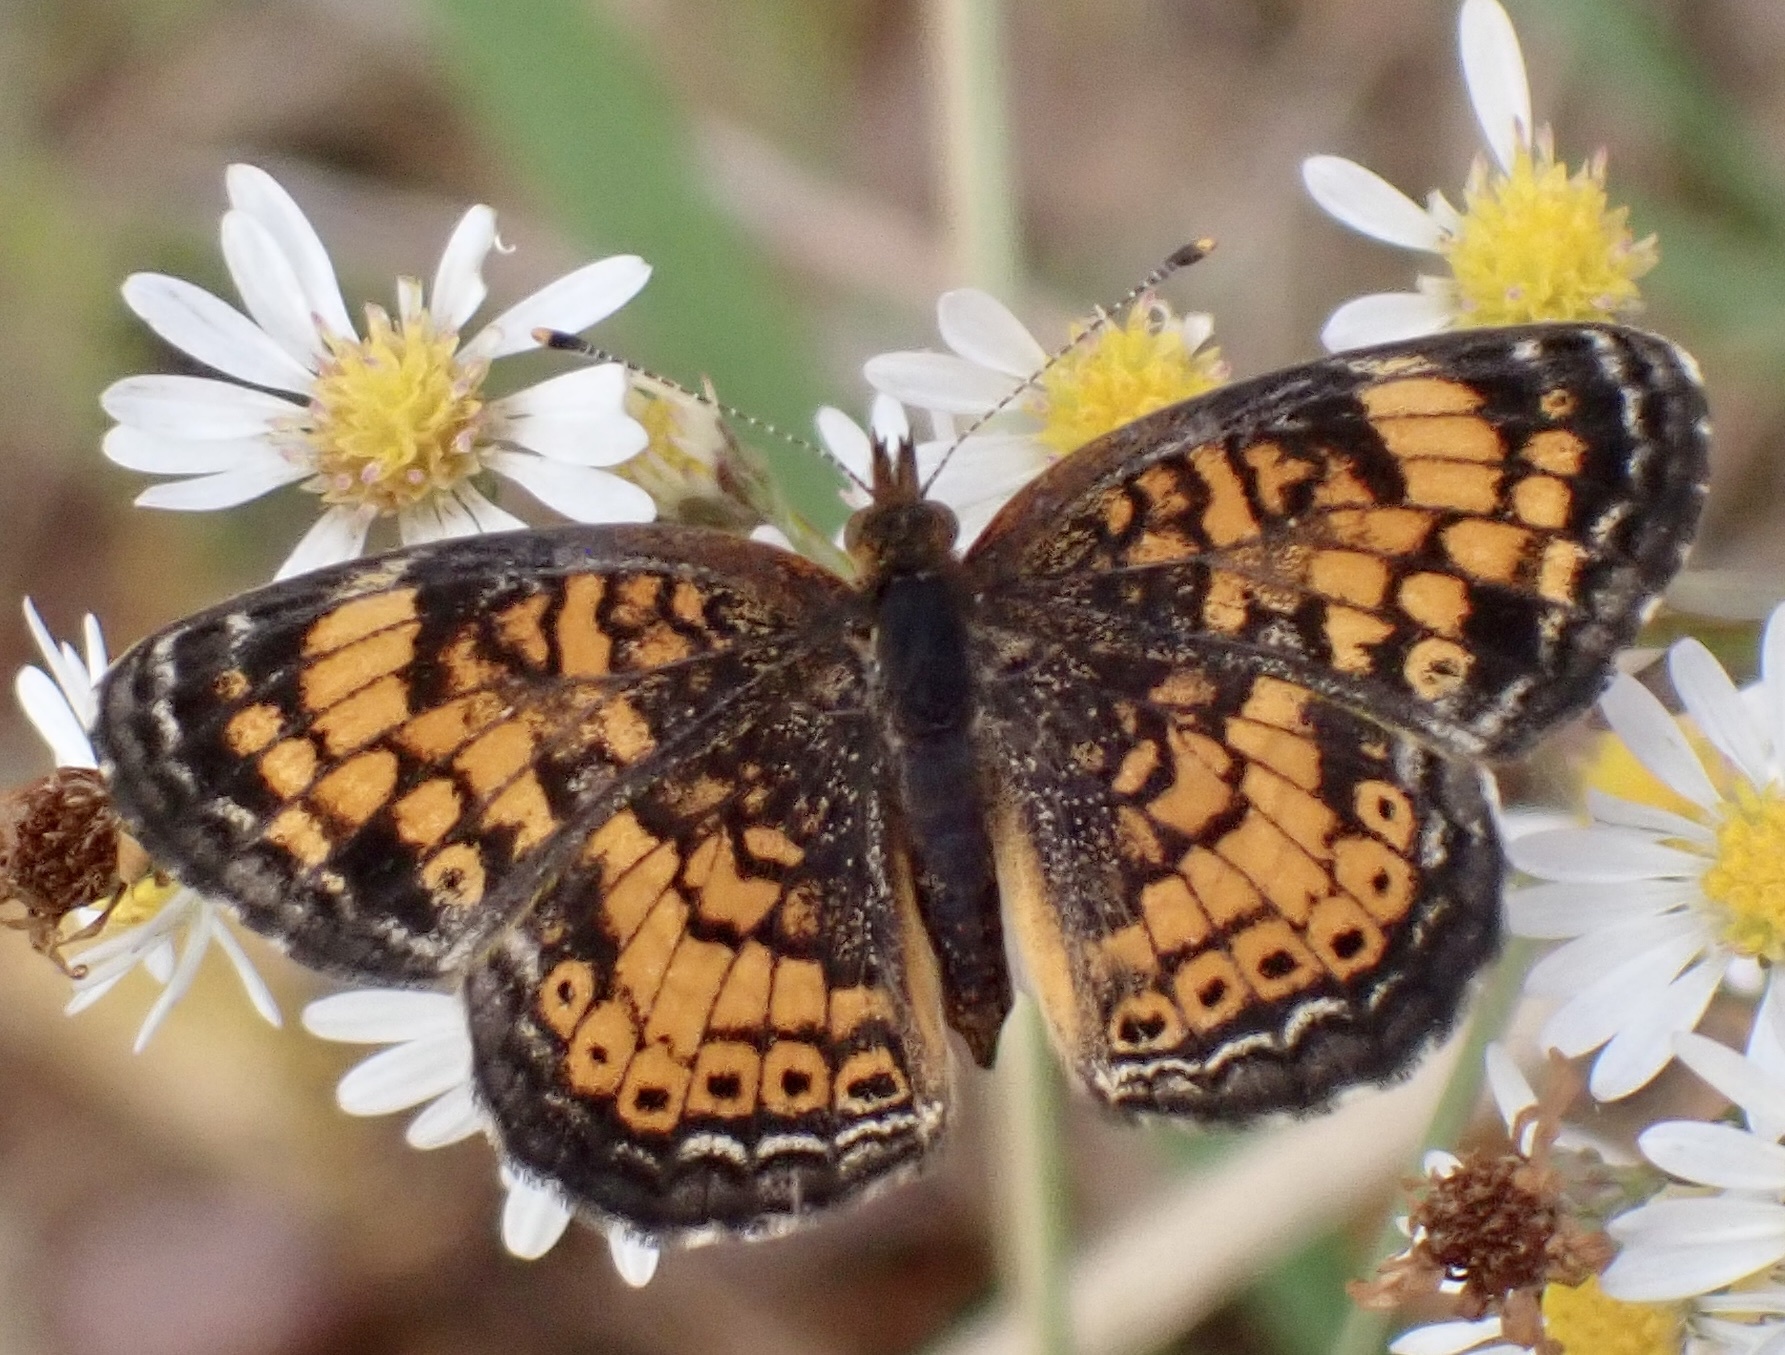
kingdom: Animalia
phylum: Arthropoda
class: Insecta
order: Lepidoptera
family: Nymphalidae
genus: Phyciodes
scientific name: Phyciodes tharos
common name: Pearl crescent
